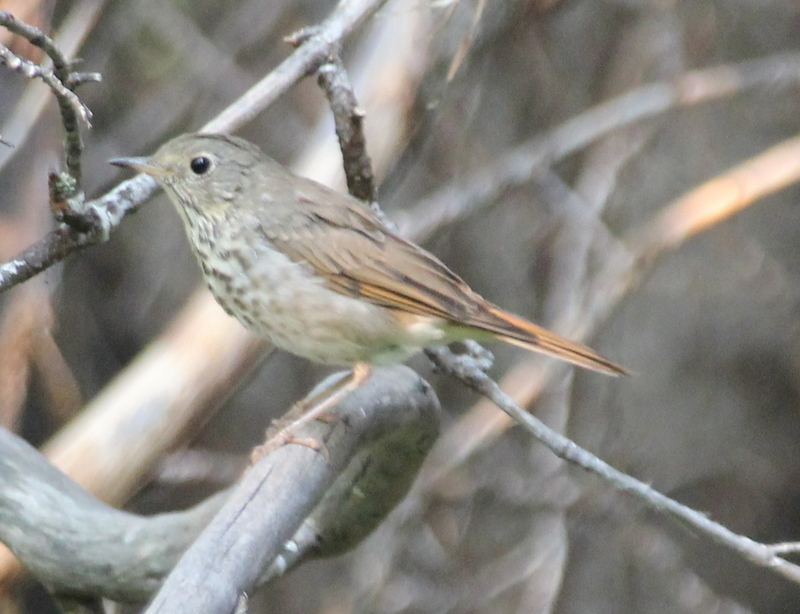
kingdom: Animalia
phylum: Chordata
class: Aves
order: Passeriformes
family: Turdidae
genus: Catharus
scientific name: Catharus guttatus
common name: Hermit thrush
